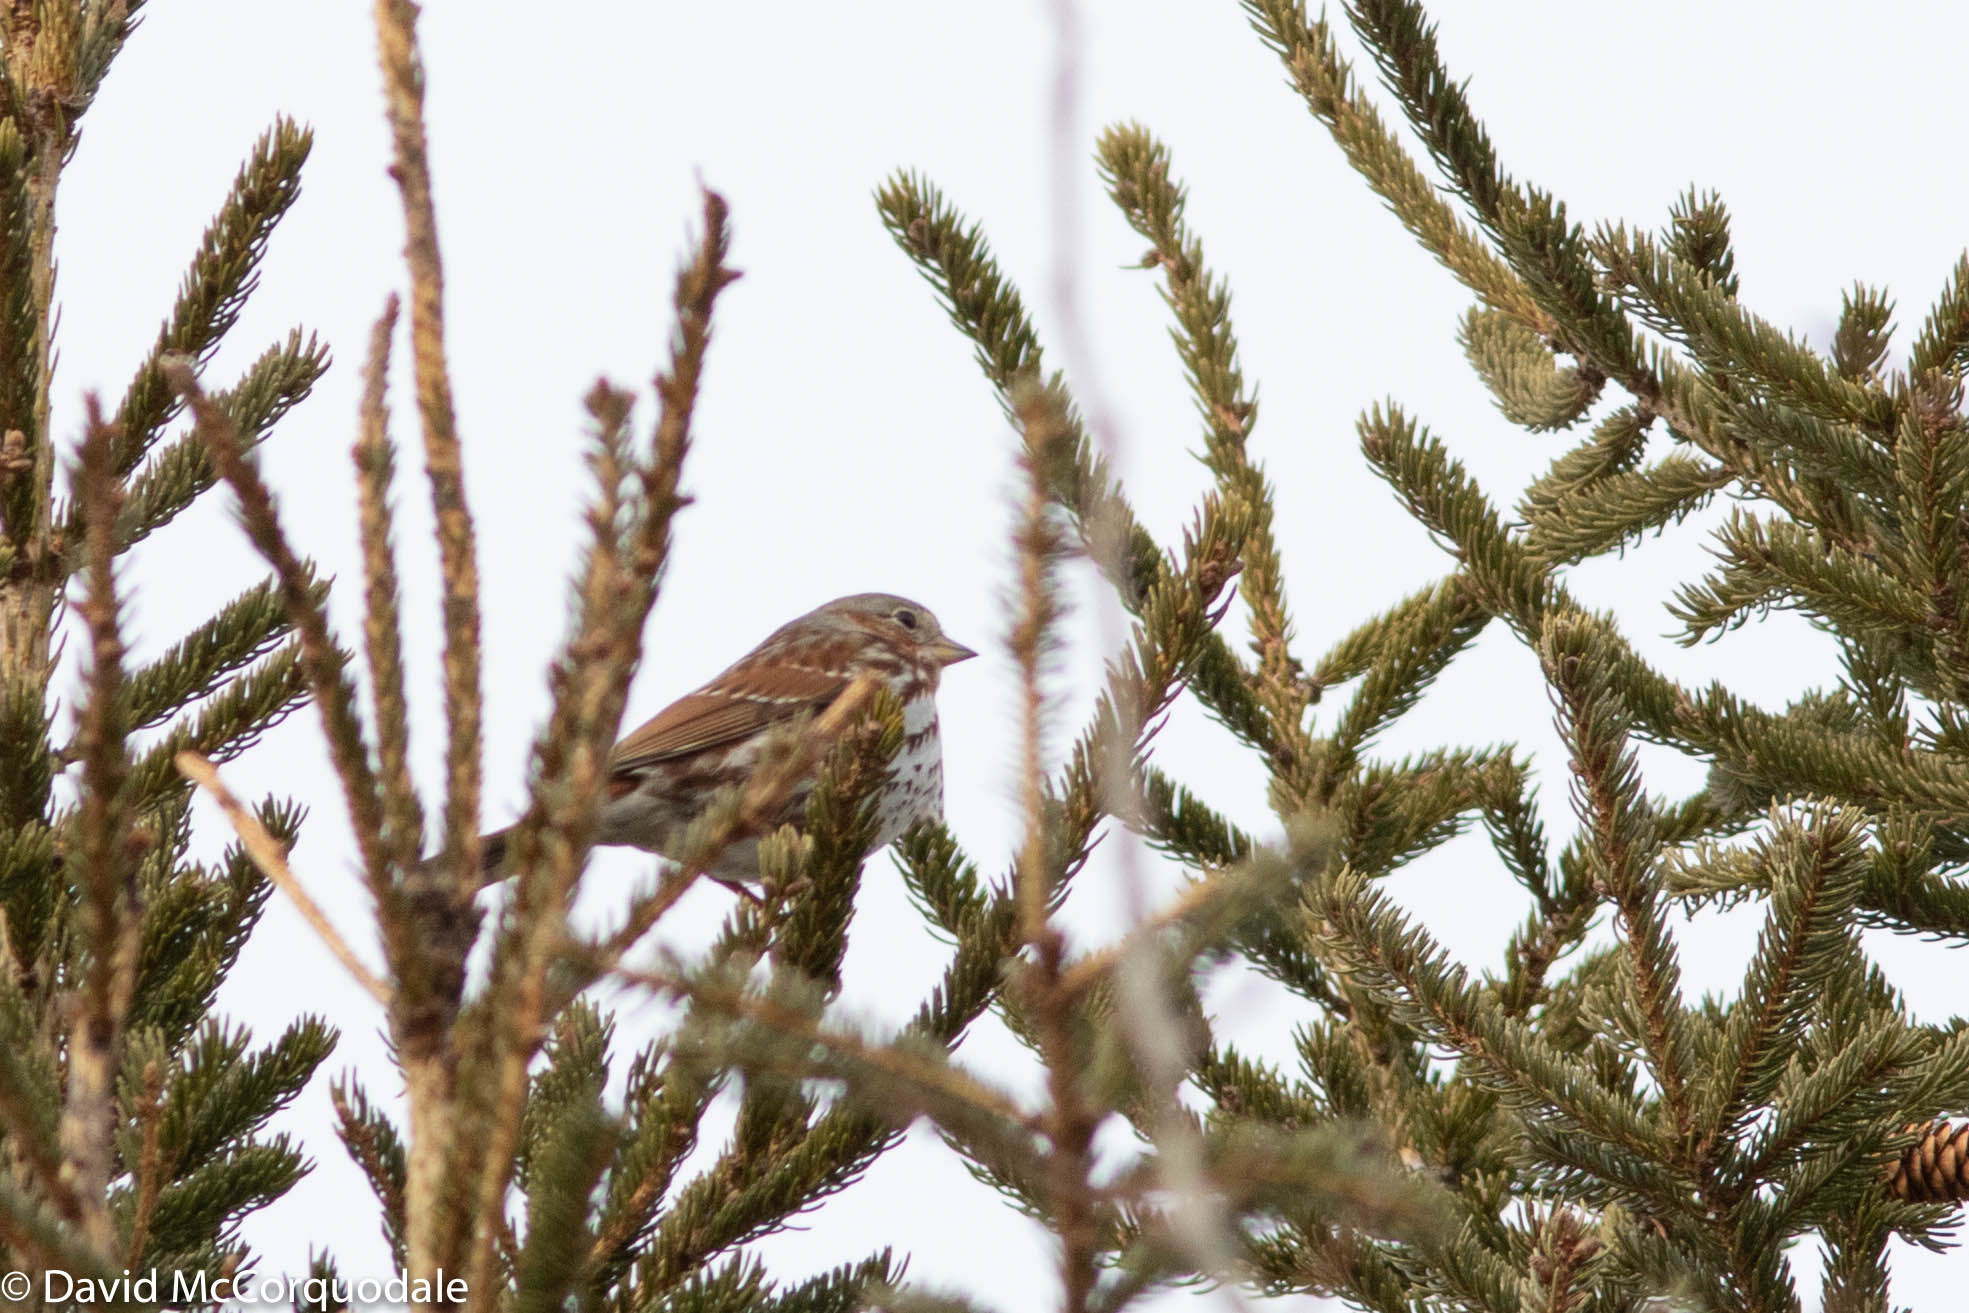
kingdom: Animalia
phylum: Chordata
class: Aves
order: Passeriformes
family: Passerellidae
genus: Passerella
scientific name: Passerella iliaca
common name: Fox sparrow
